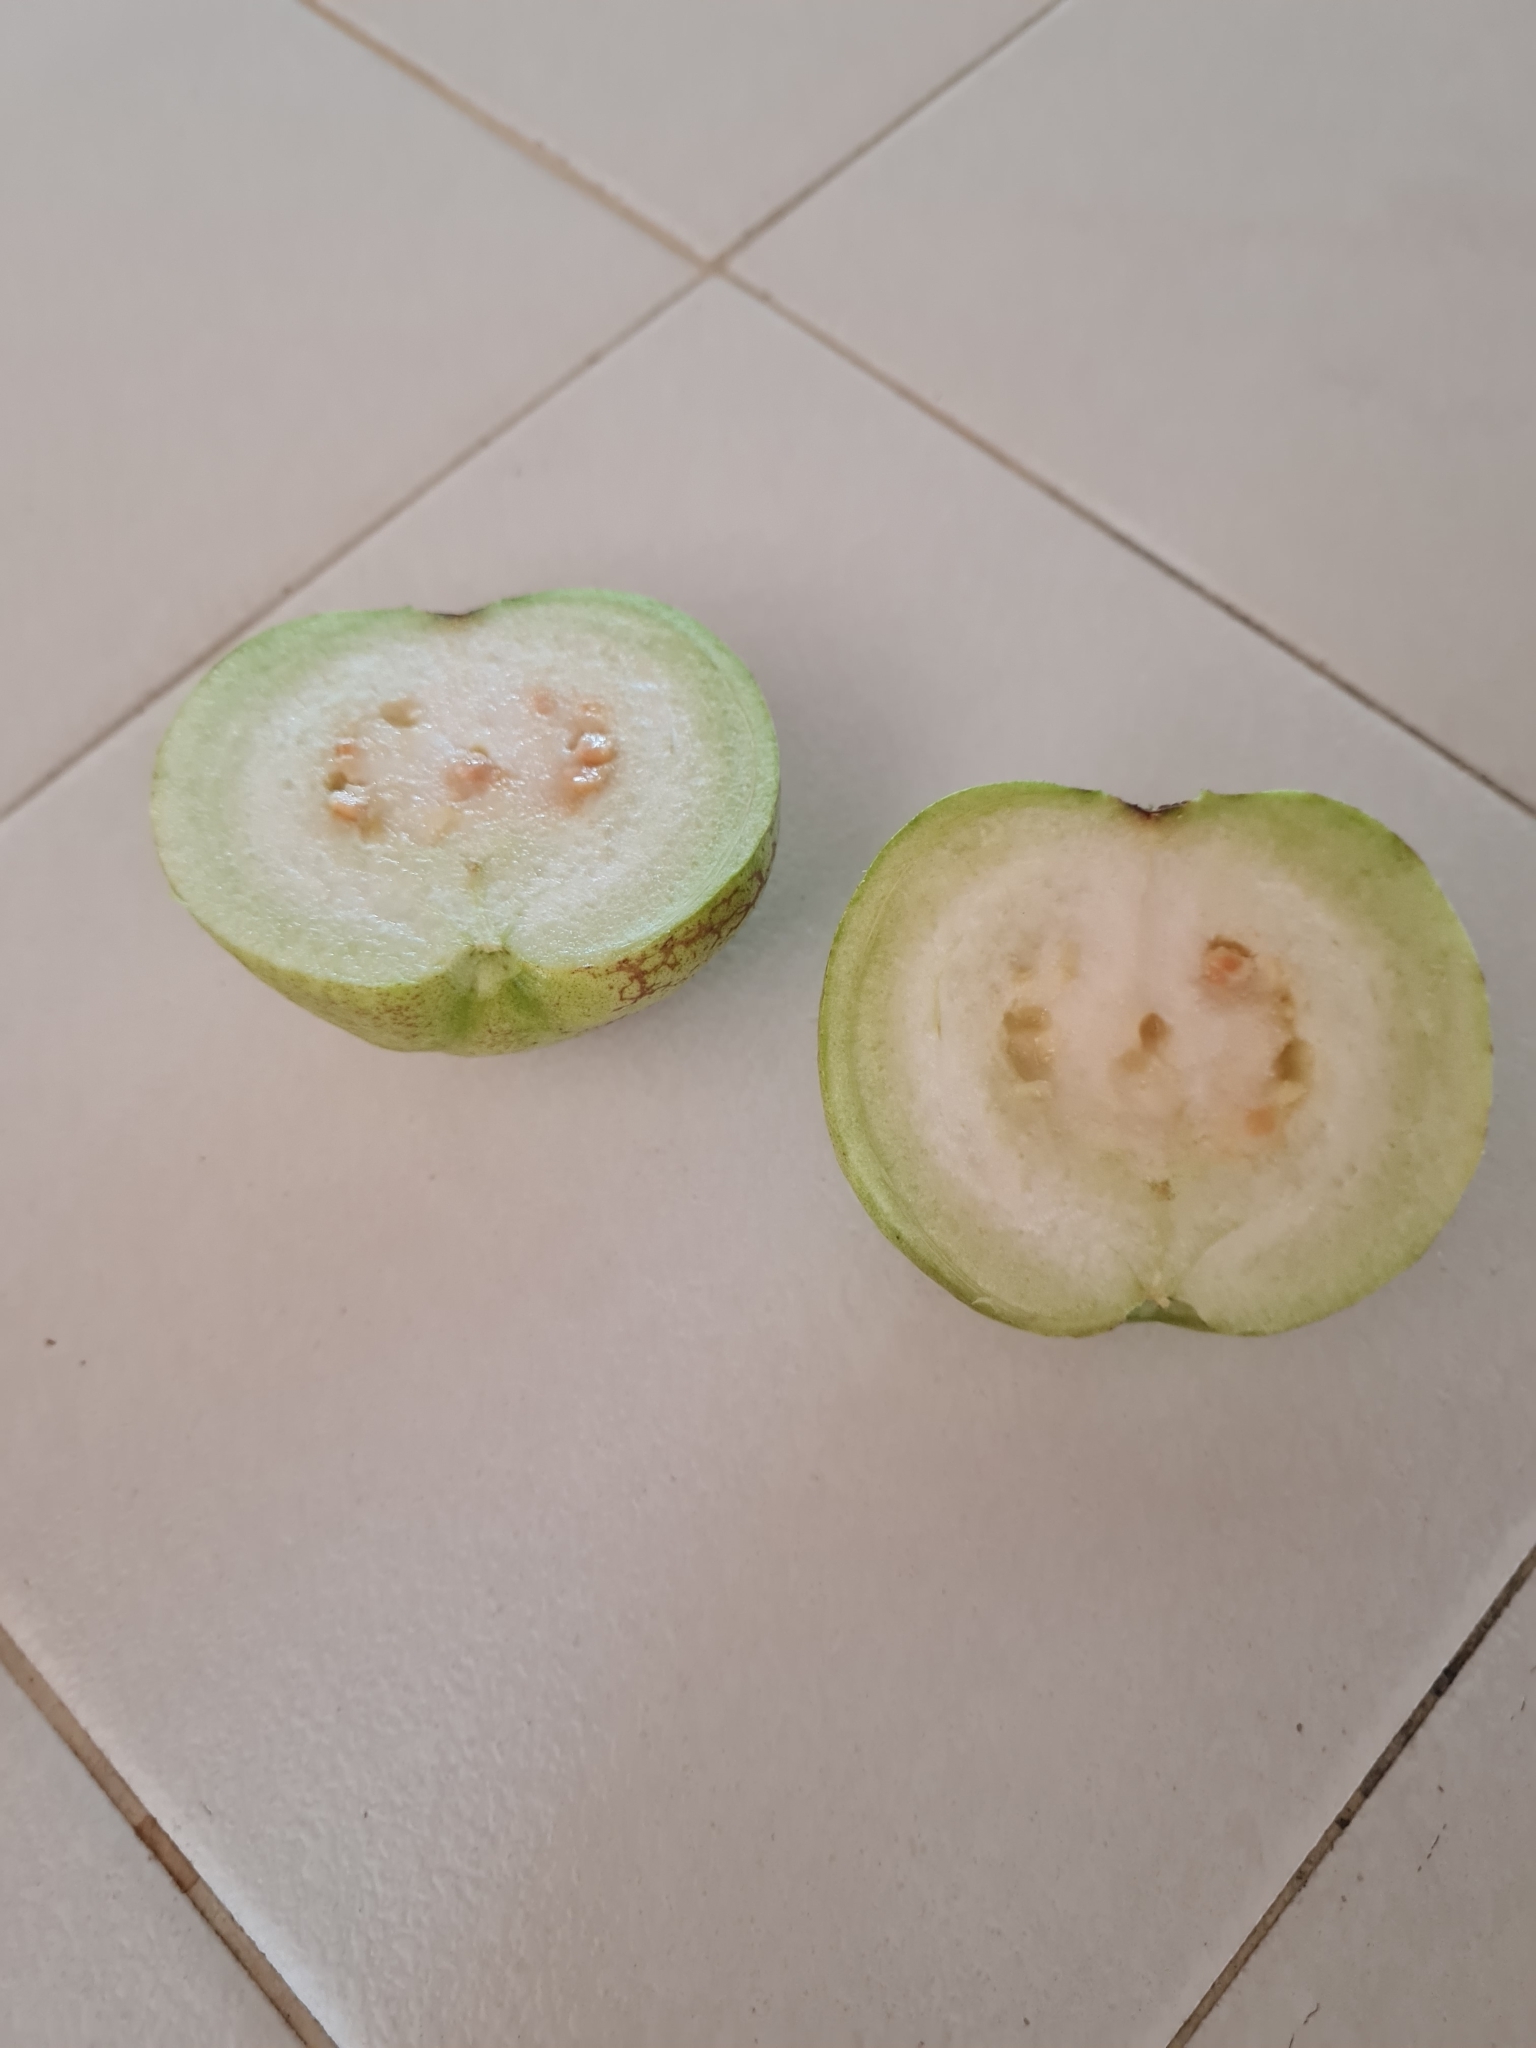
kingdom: Plantae
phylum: Tracheophyta
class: Magnoliopsida
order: Myrtales
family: Myrtaceae
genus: Psidium
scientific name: Psidium guajava
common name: Guava
